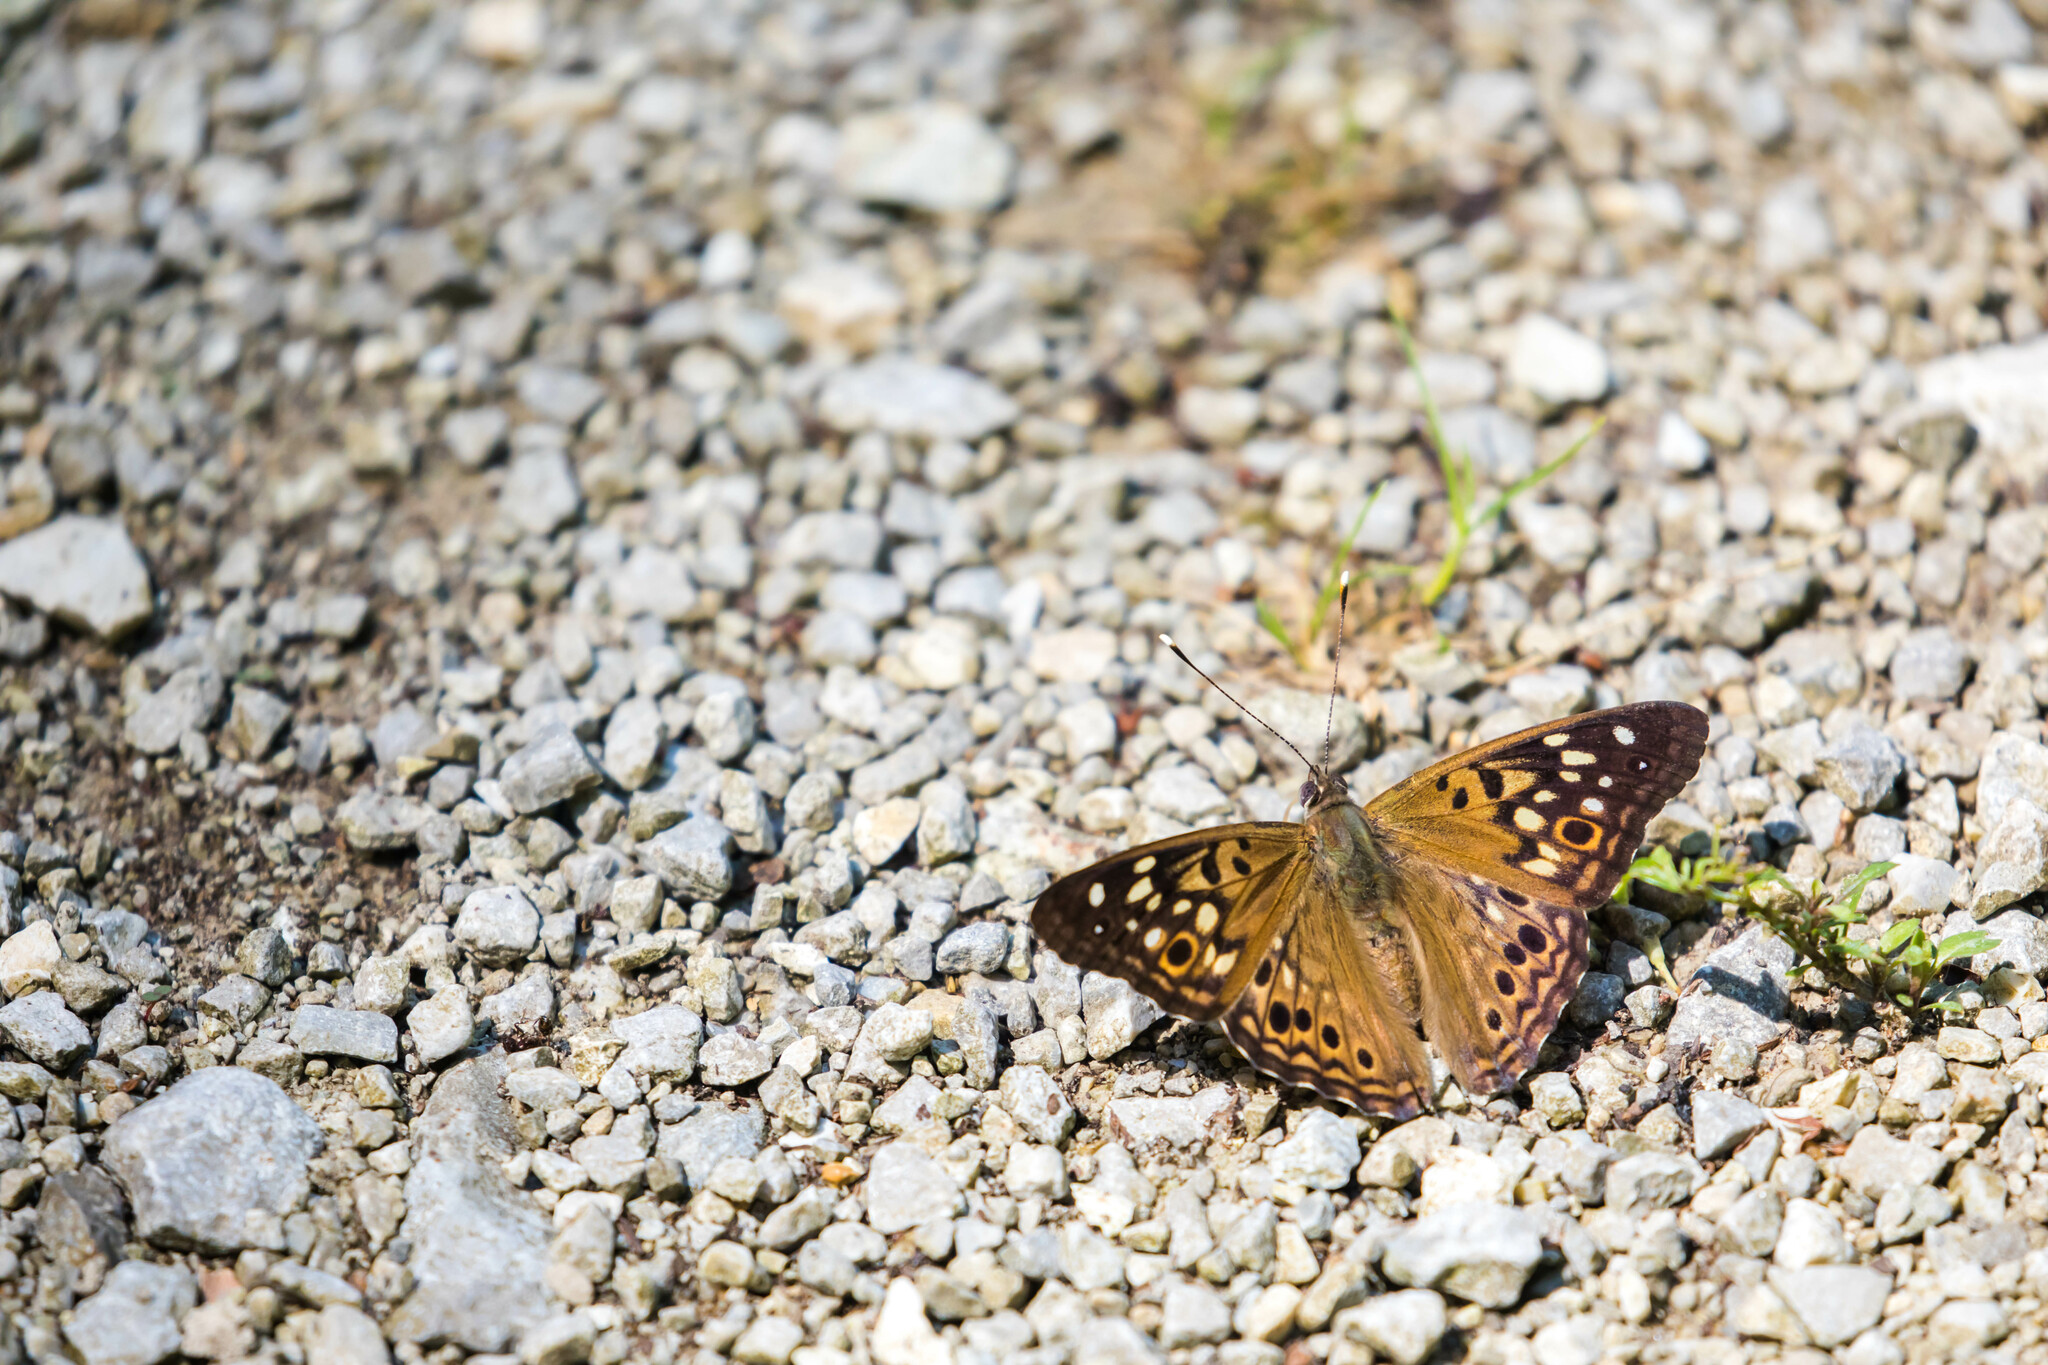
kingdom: Animalia
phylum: Arthropoda
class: Insecta
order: Lepidoptera
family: Nymphalidae
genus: Asterocampa
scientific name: Asterocampa celtis
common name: Hackberry emperor
